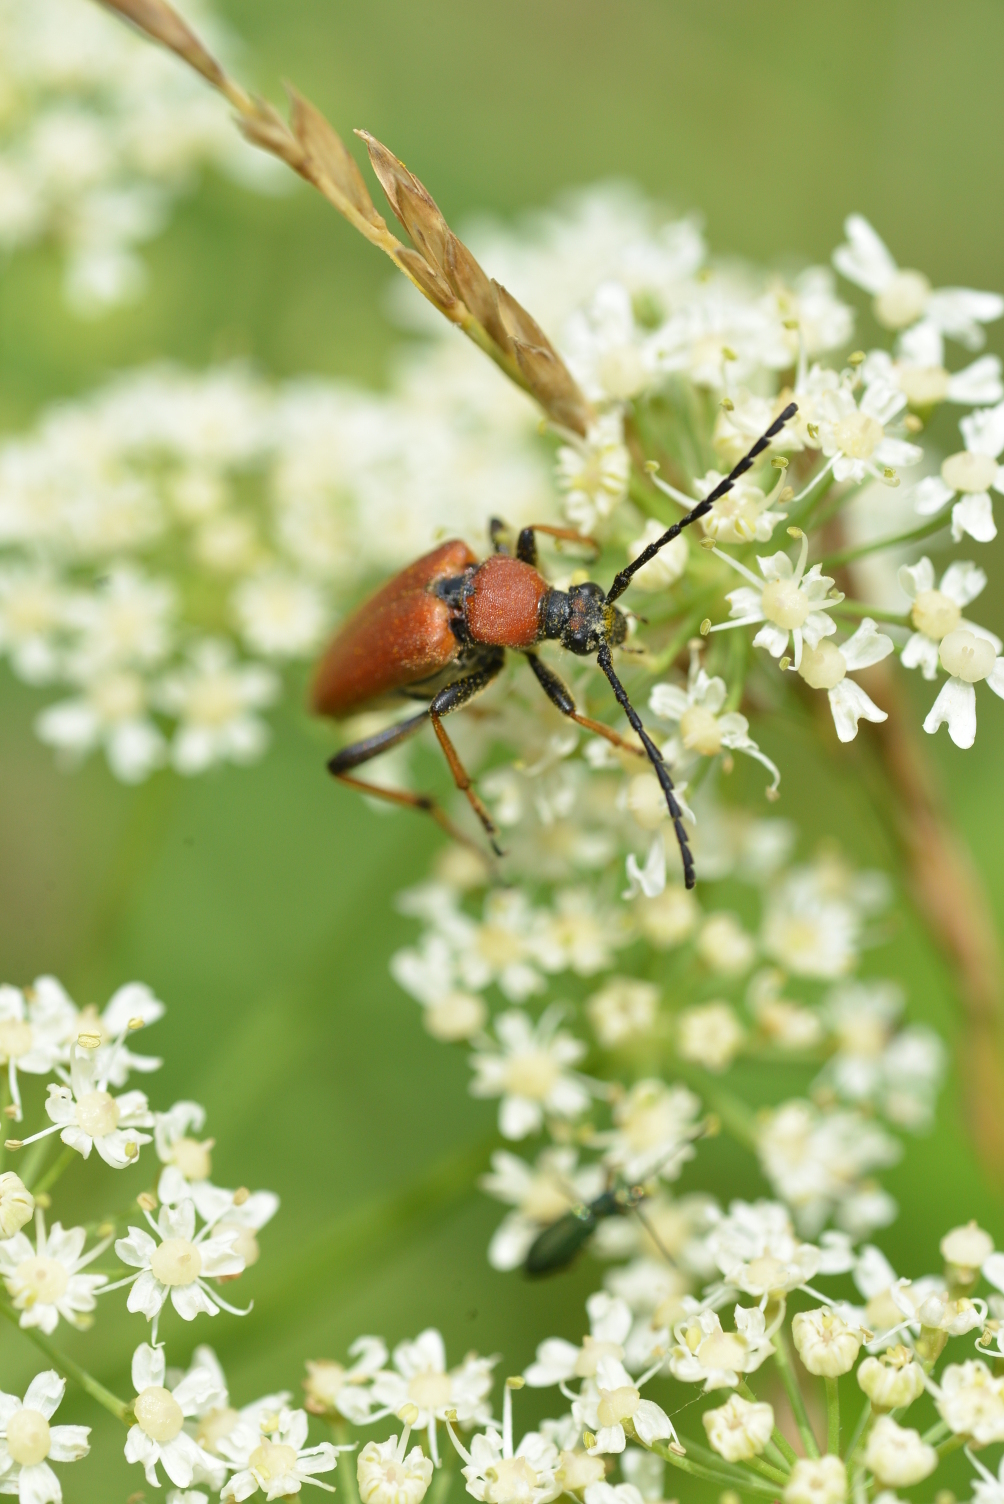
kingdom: Animalia
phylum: Arthropoda
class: Insecta
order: Coleoptera
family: Cerambycidae
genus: Stictoleptura
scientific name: Stictoleptura rubra
